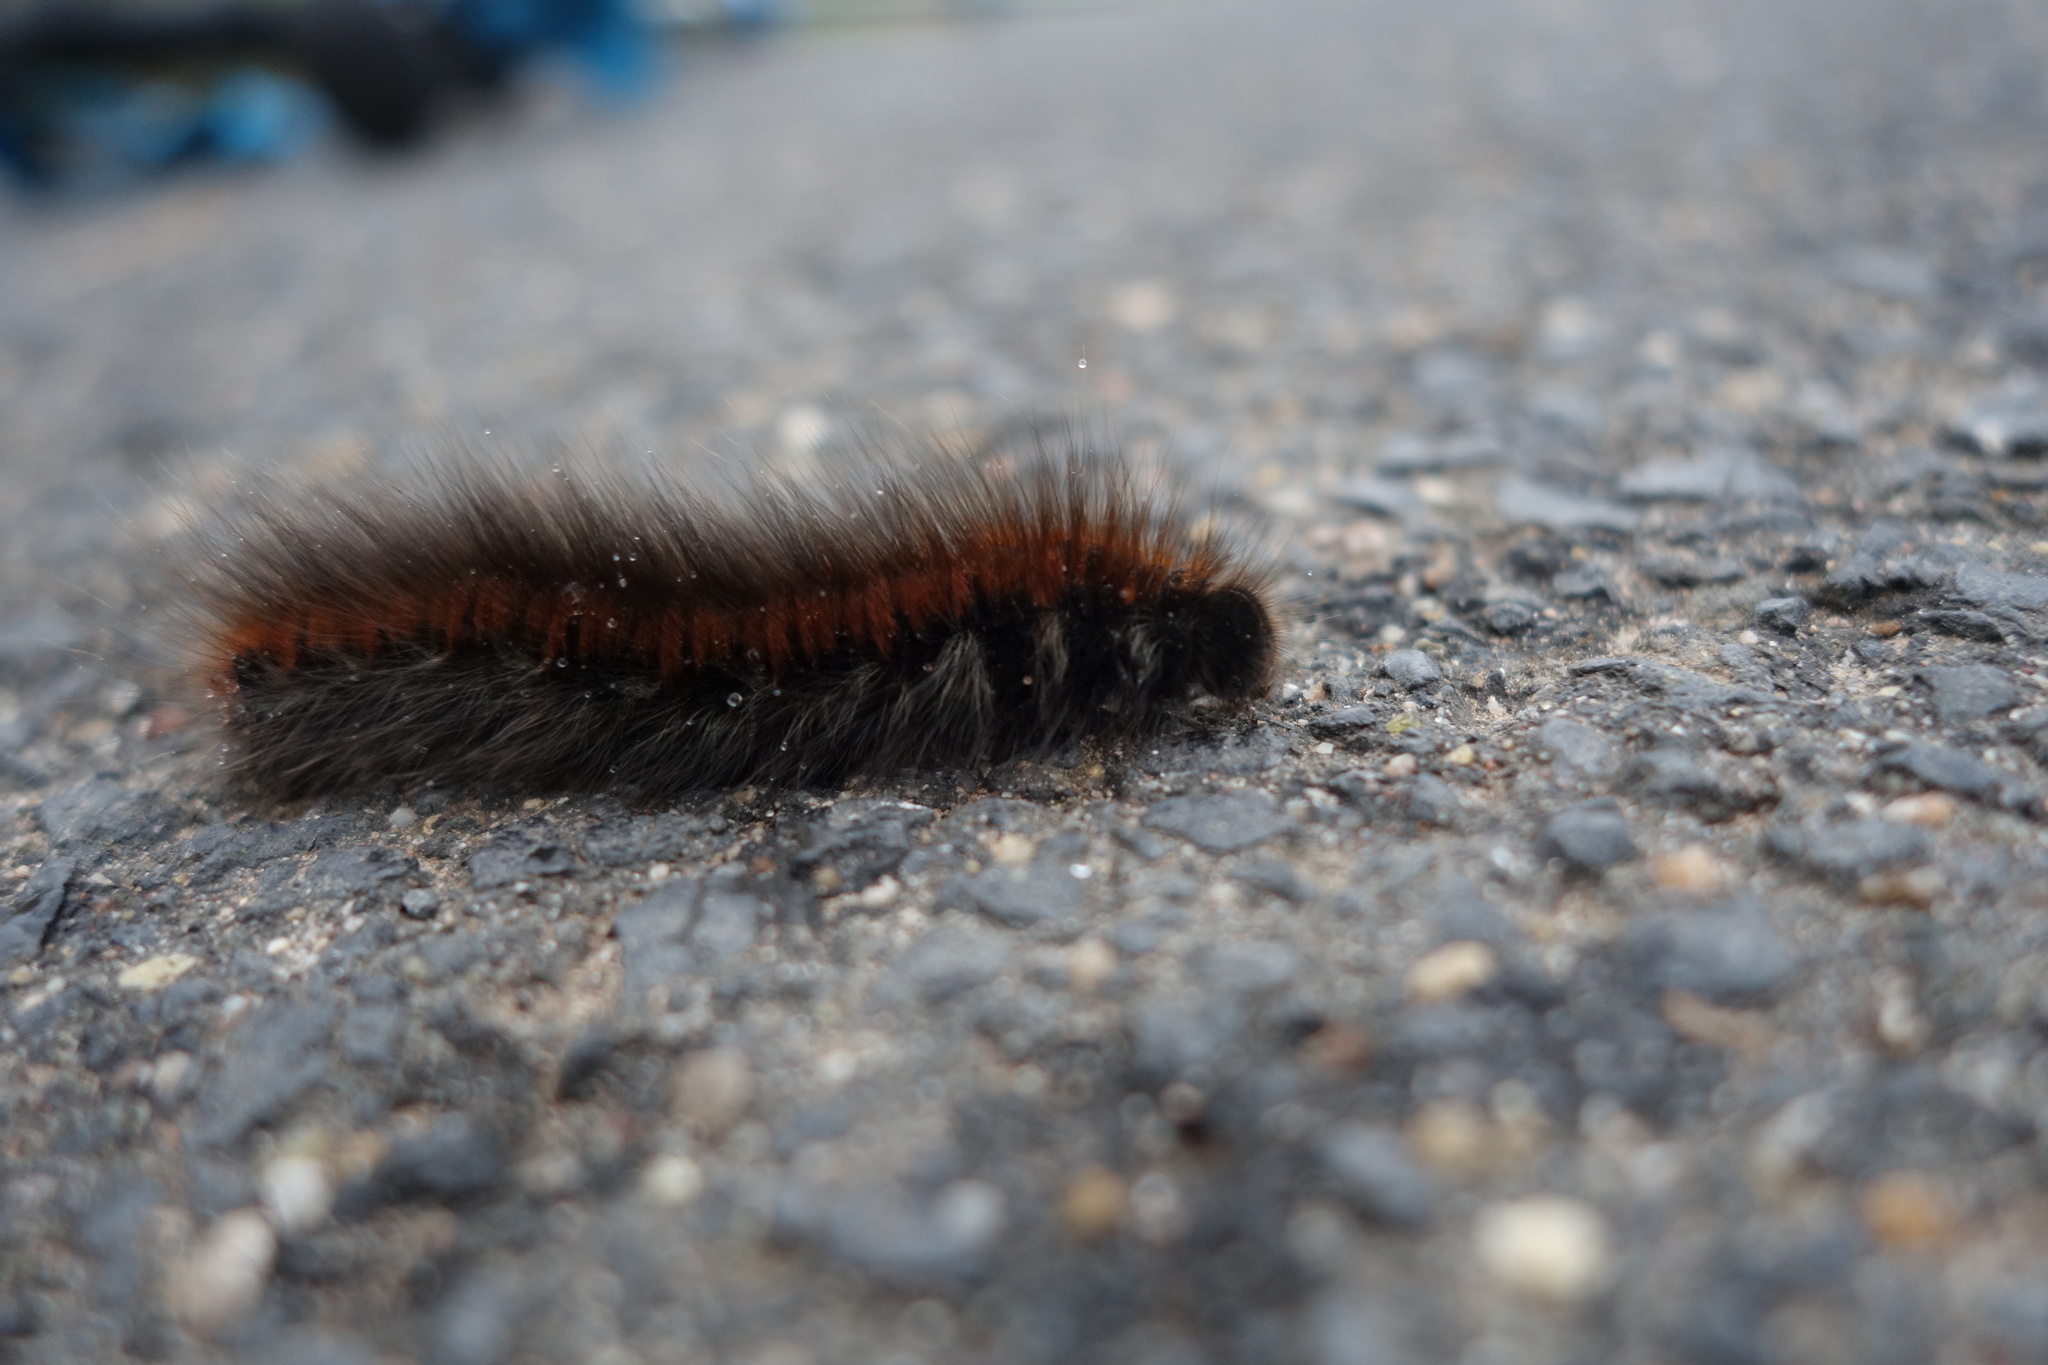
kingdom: Animalia
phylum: Arthropoda
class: Insecta
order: Lepidoptera
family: Lasiocampidae
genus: Macrothylacia
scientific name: Macrothylacia rubi
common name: Fox moth
